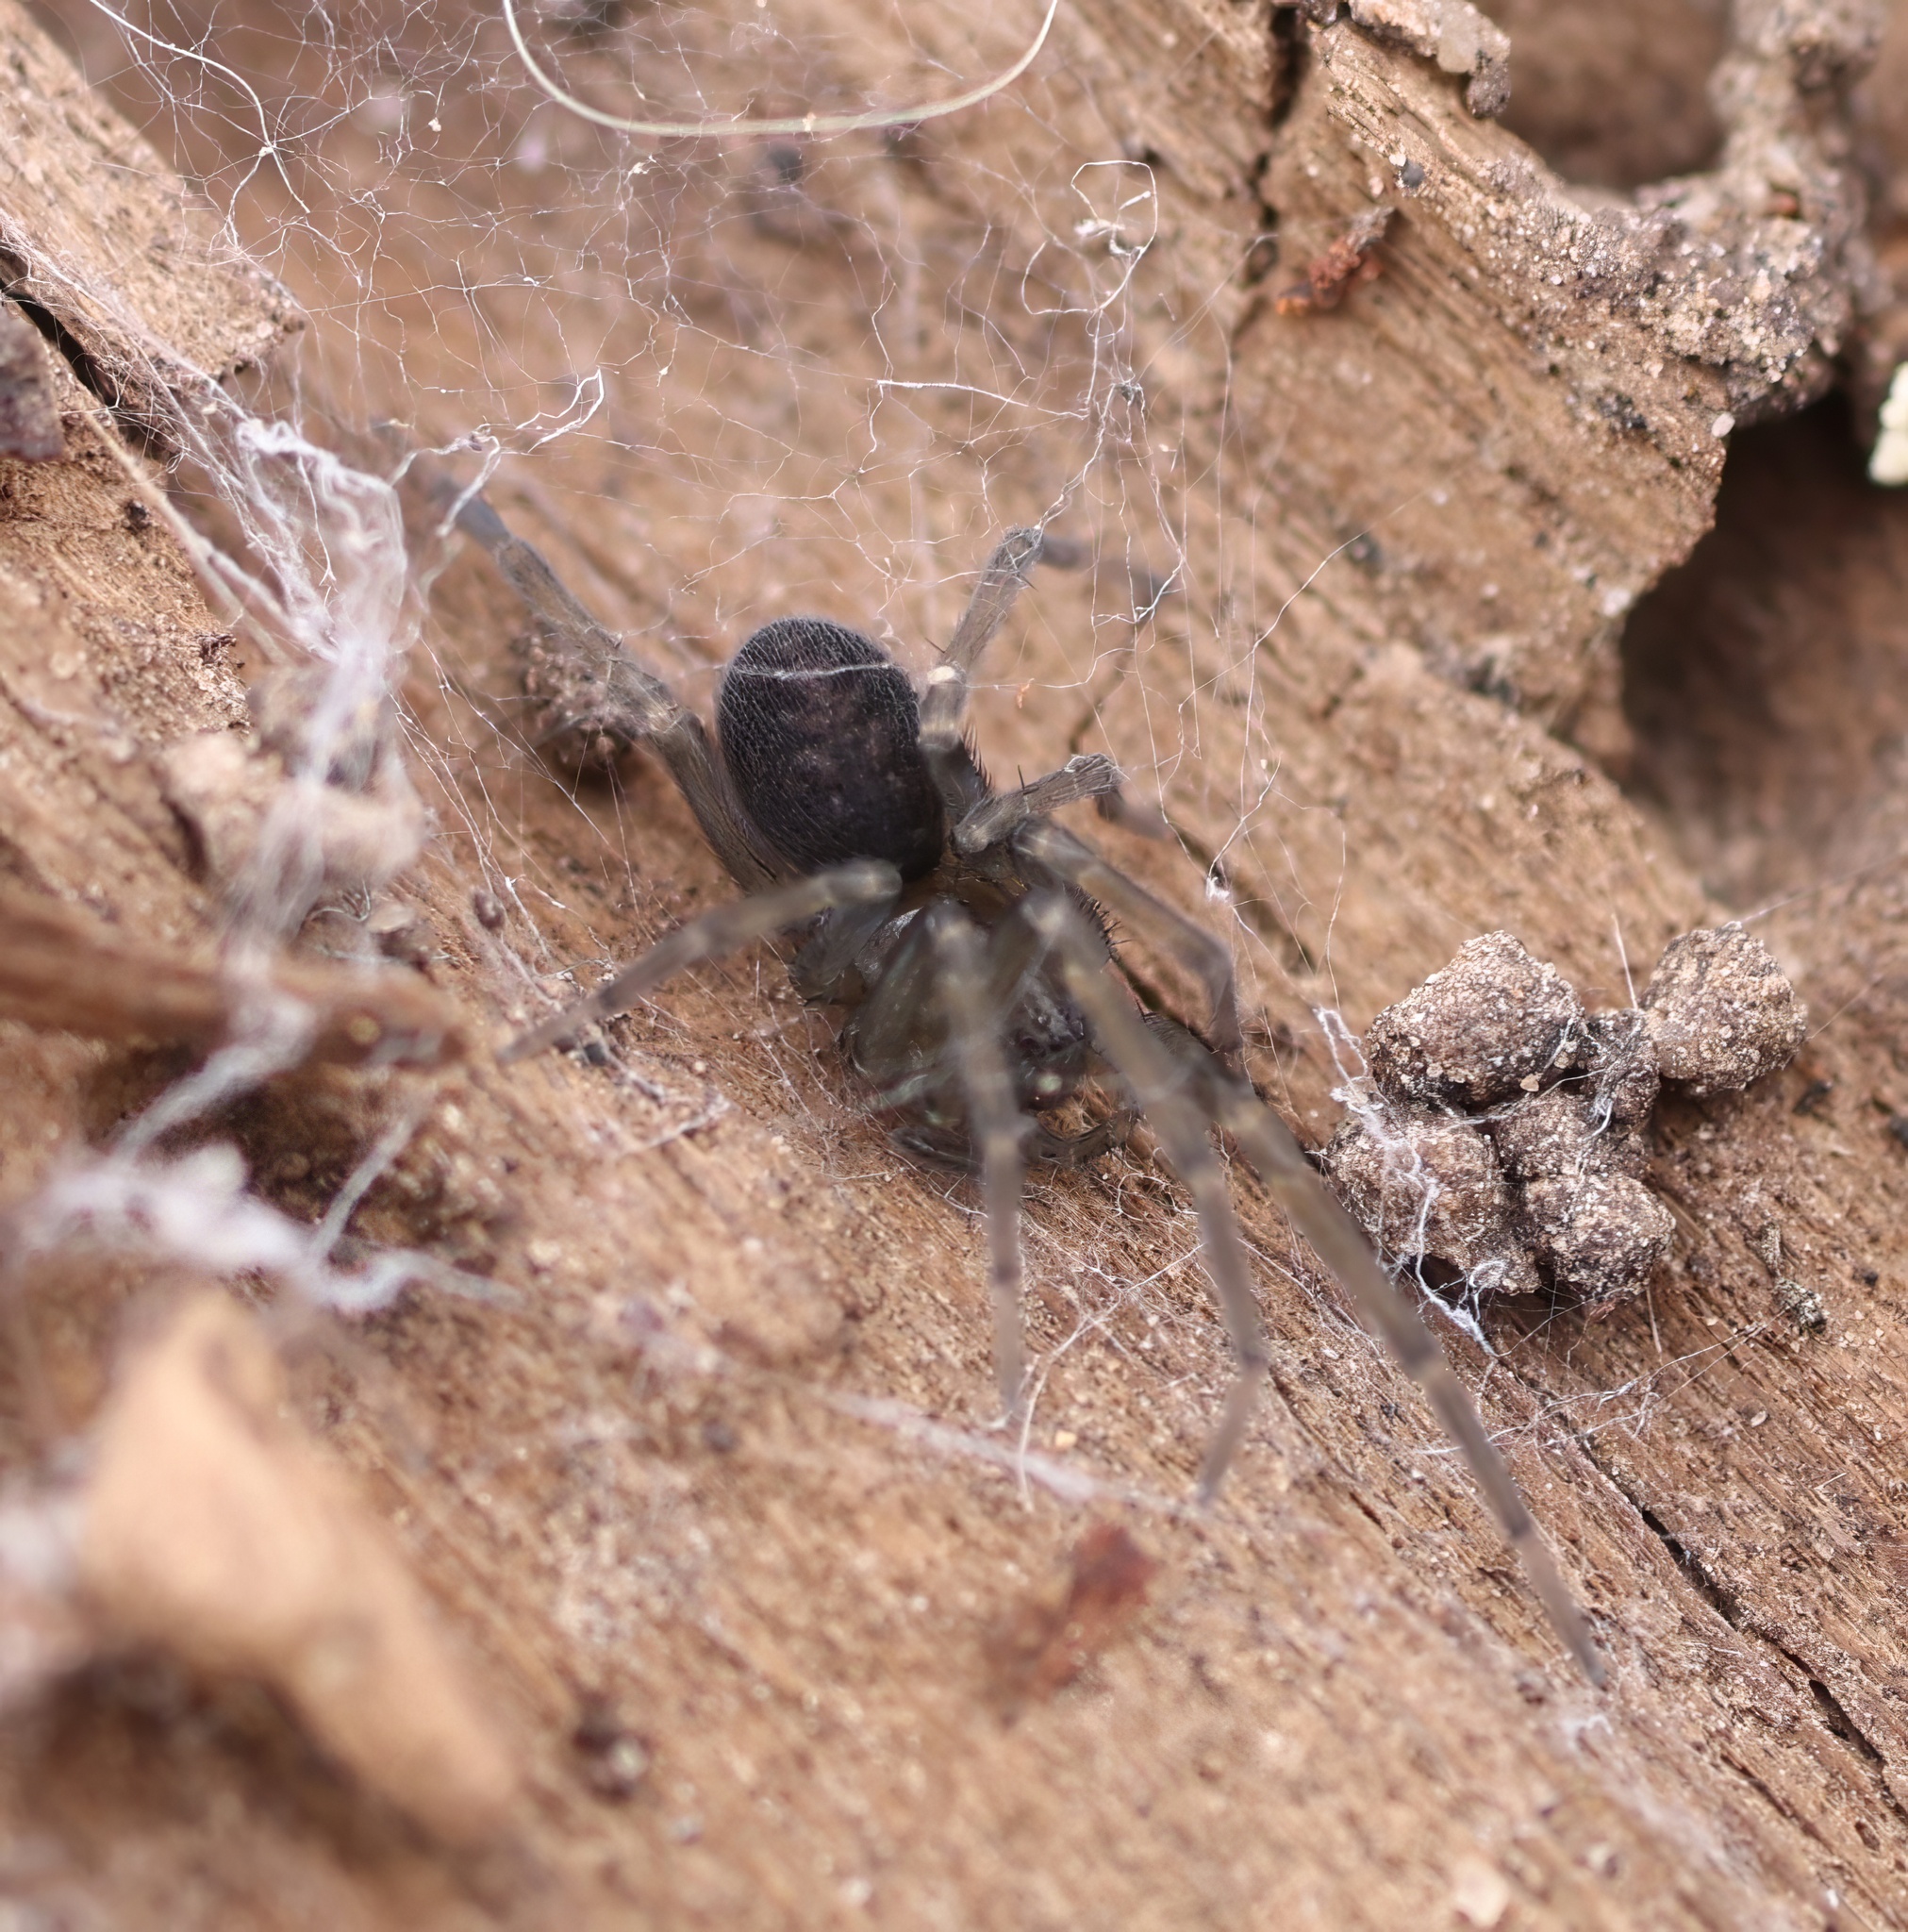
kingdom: Animalia
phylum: Arthropoda
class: Arachnida
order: Araneae
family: Desidae
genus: Metaltella
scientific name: Metaltella simoni
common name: Cribellate spider
